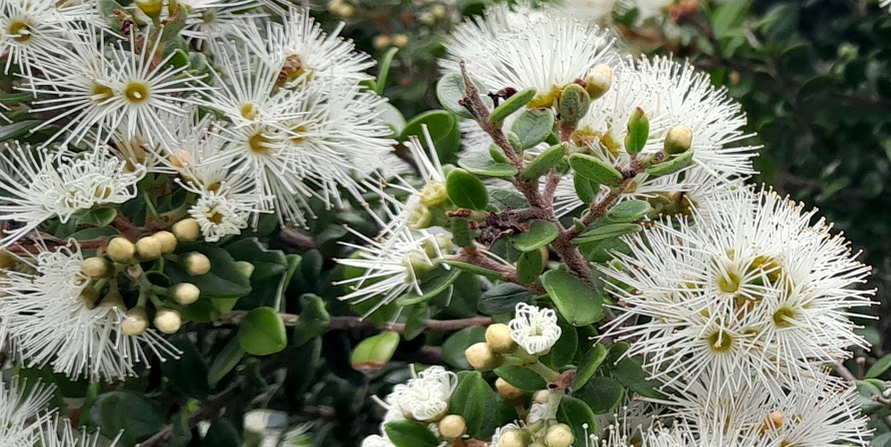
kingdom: Plantae
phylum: Tracheophyta
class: Magnoliopsida
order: Myrtales
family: Myrtaceae
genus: Metrosideros
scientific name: Metrosideros perforata
